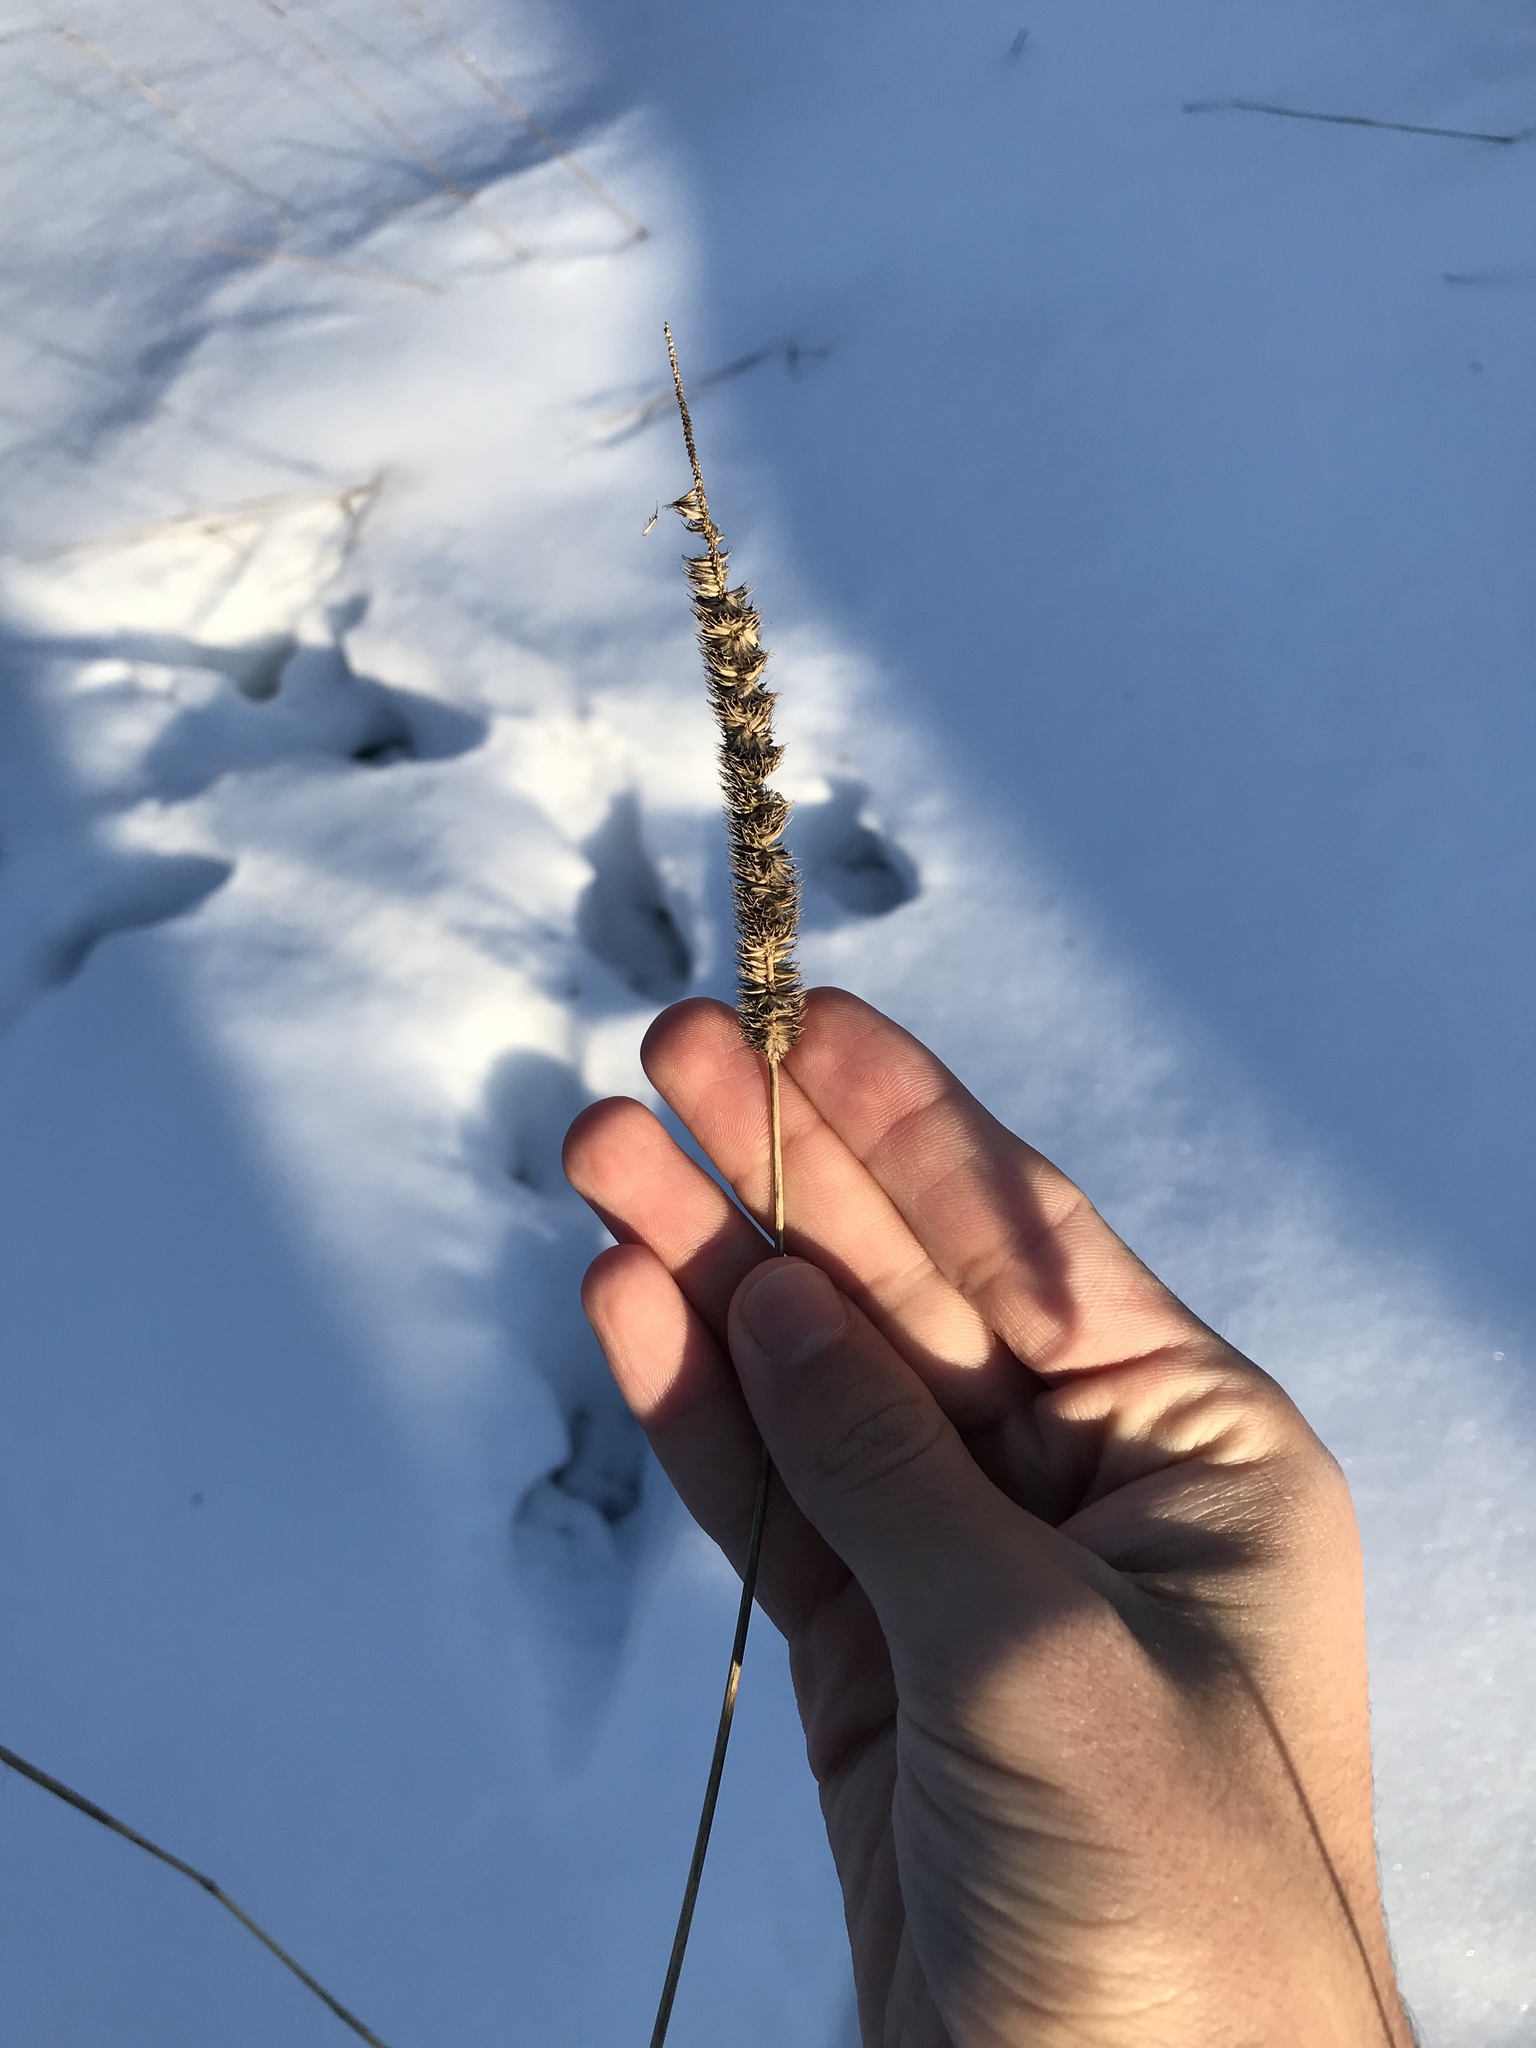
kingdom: Plantae
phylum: Tracheophyta
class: Liliopsida
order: Poales
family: Poaceae
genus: Phleum
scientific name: Phleum pratense
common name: Timothy grass
